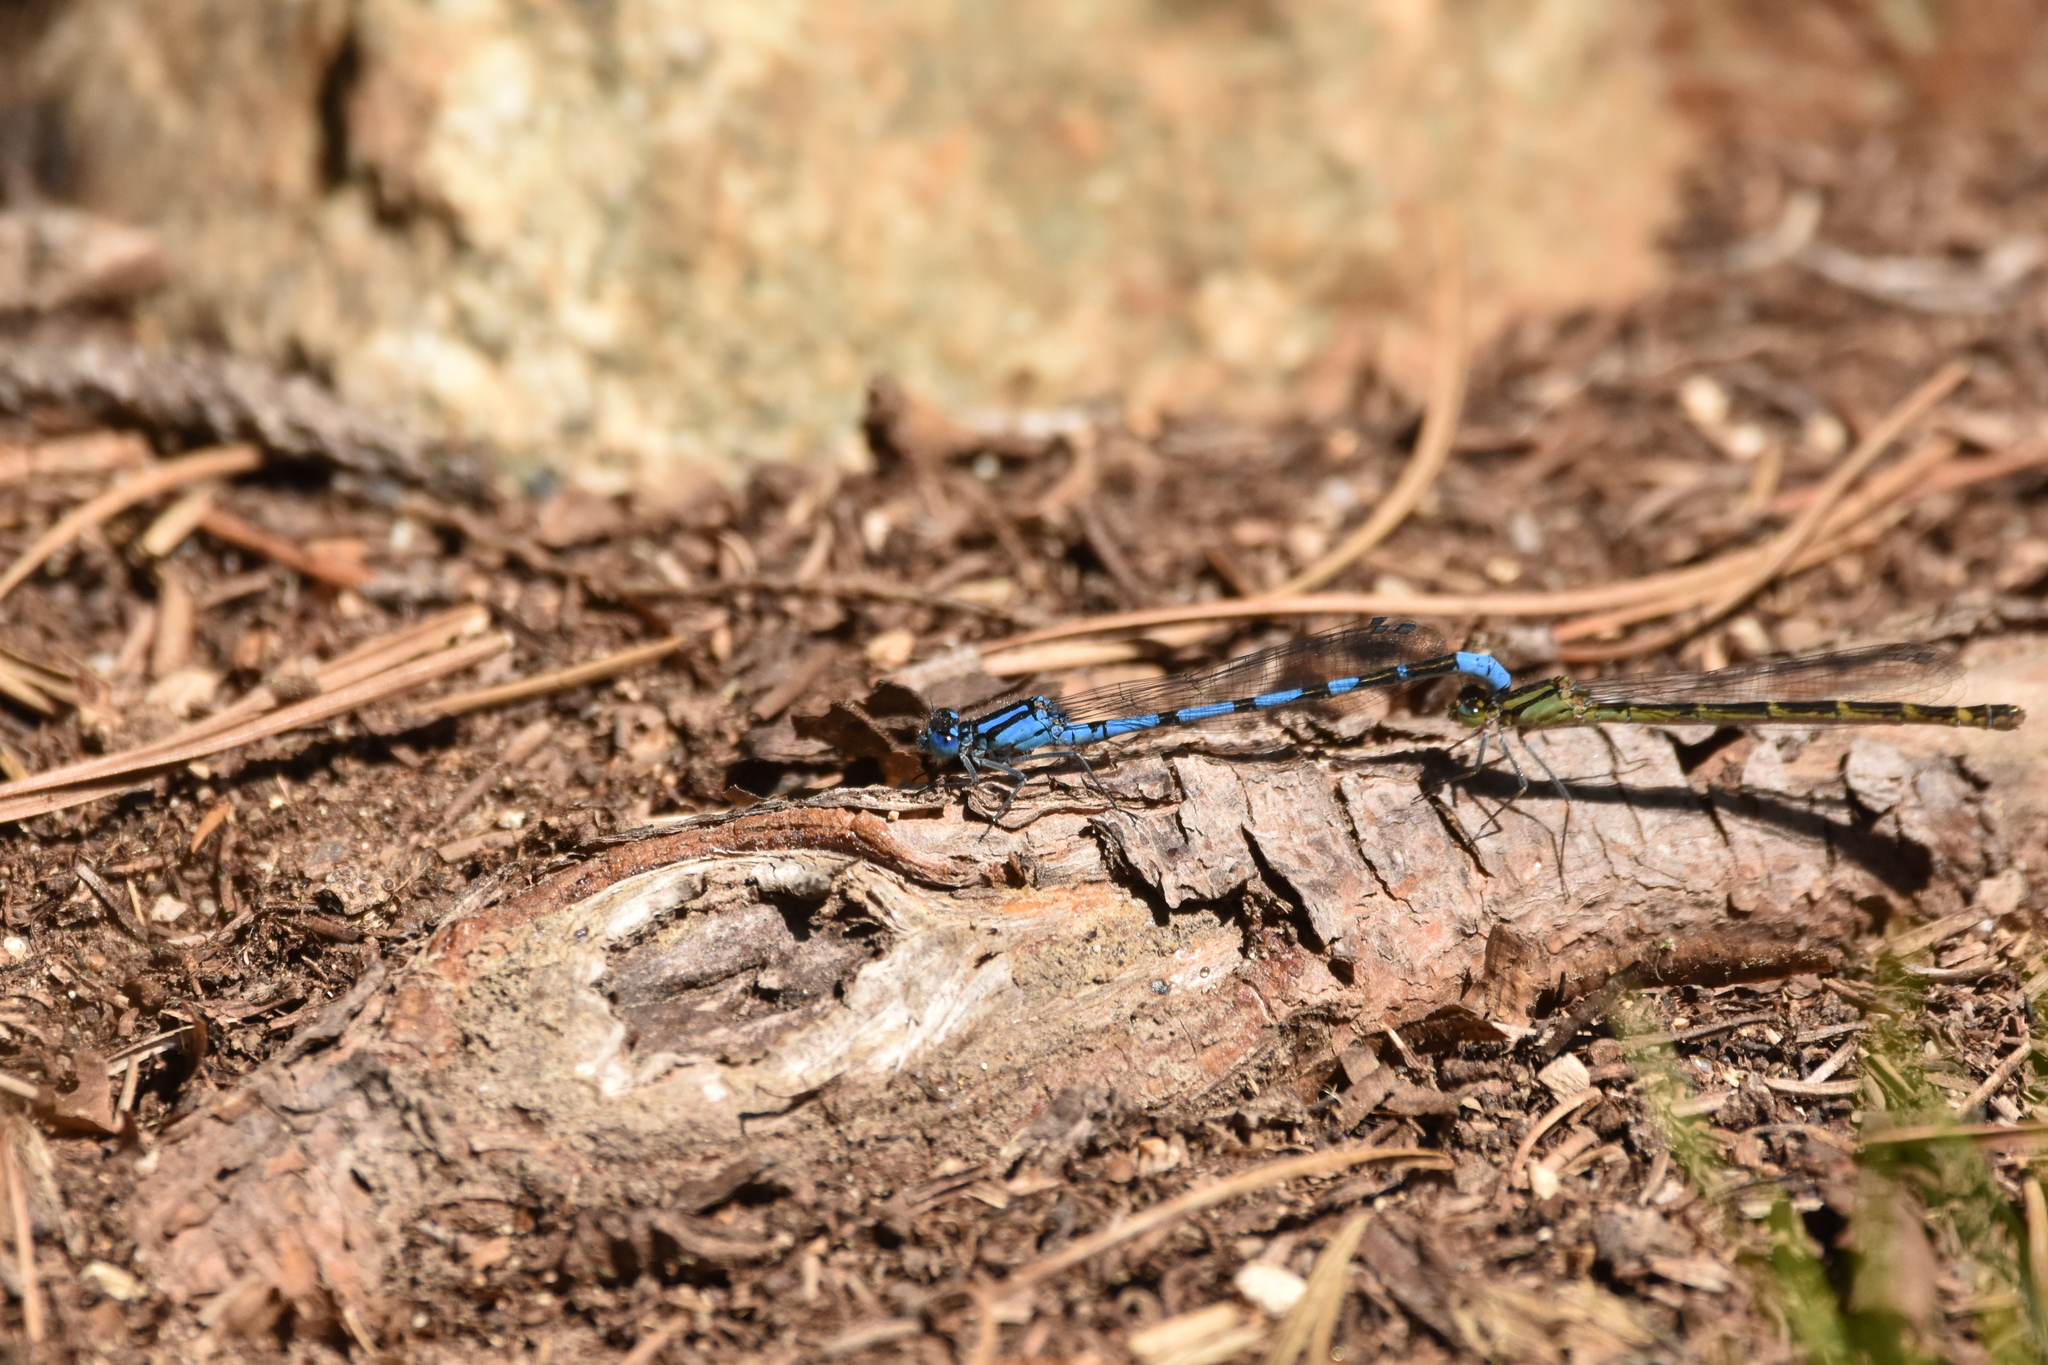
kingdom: Animalia
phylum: Arthropoda
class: Insecta
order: Odonata
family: Coenagrionidae
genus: Enallagma
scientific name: Enallagma cyathigerum
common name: Common blue damselfly
